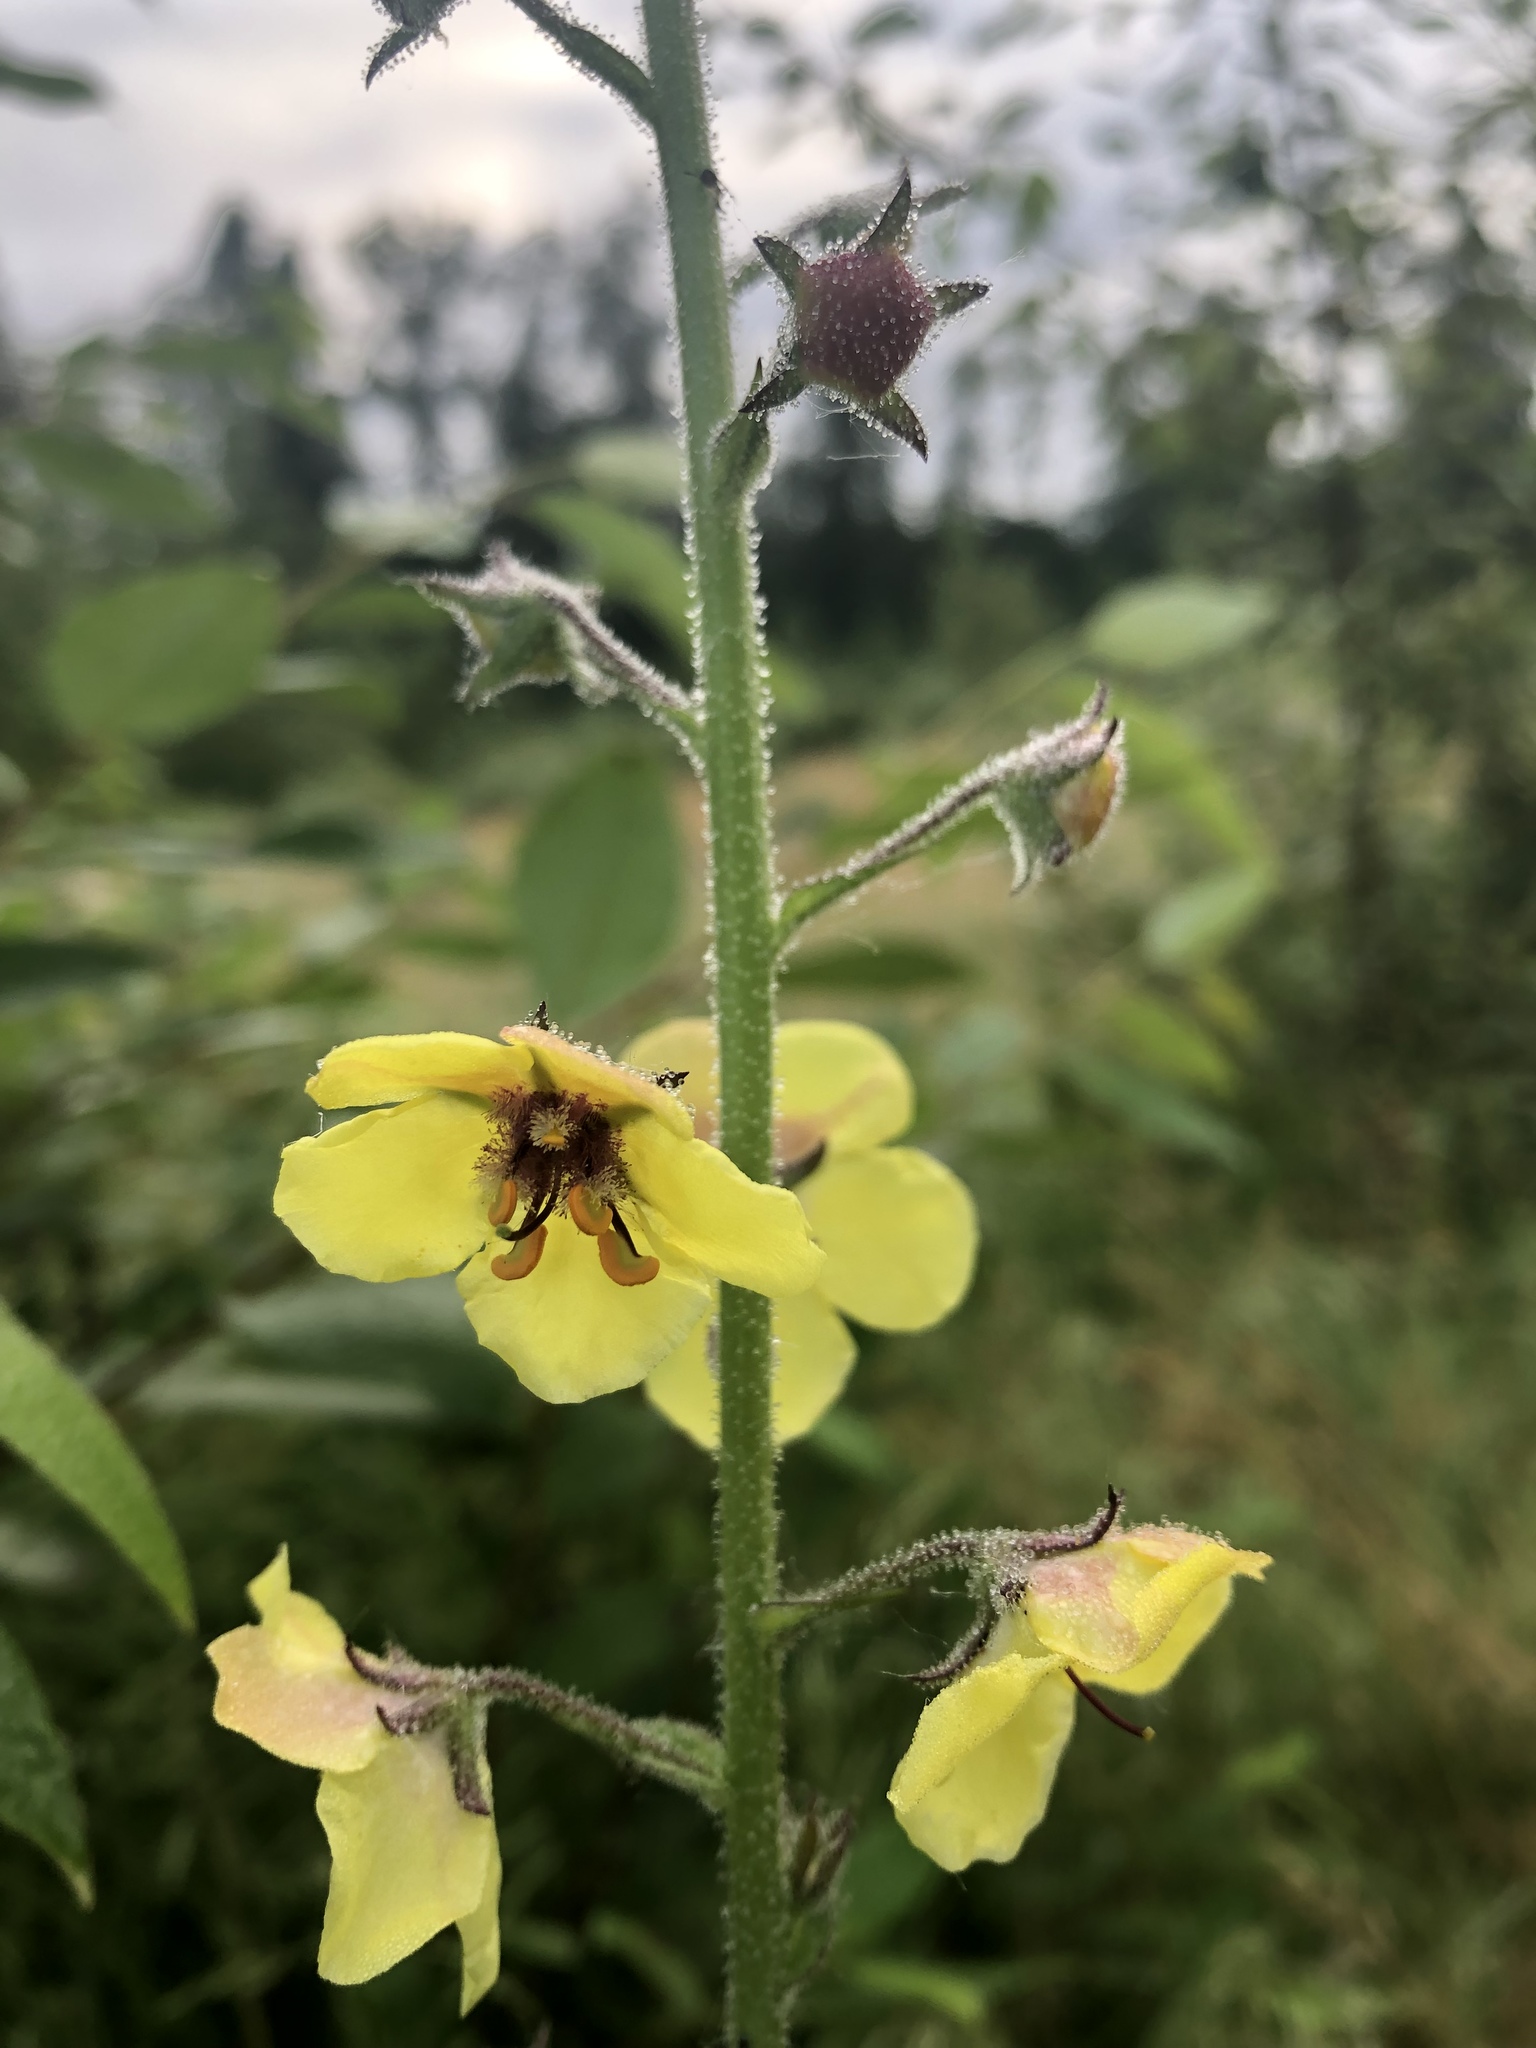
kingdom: Plantae
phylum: Tracheophyta
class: Magnoliopsida
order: Lamiales
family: Scrophulariaceae
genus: Verbascum
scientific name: Verbascum blattaria
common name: Moth mullein
